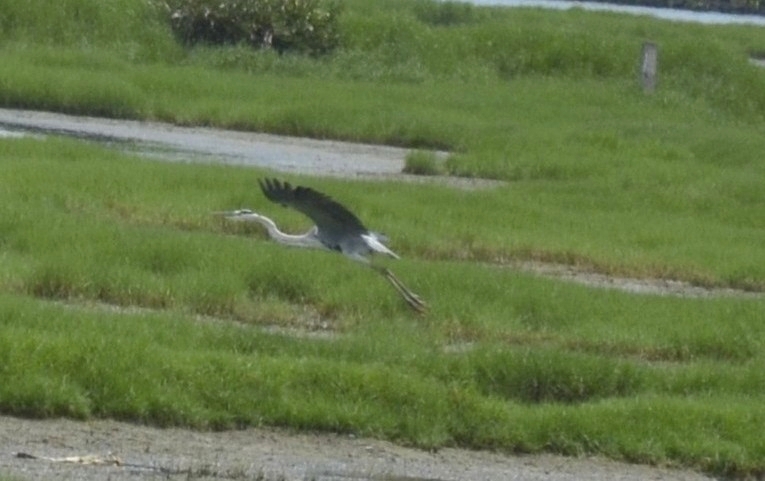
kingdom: Animalia
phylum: Chordata
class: Aves
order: Pelecaniformes
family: Ardeidae
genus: Ardea
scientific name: Ardea cinerea
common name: Grey heron
